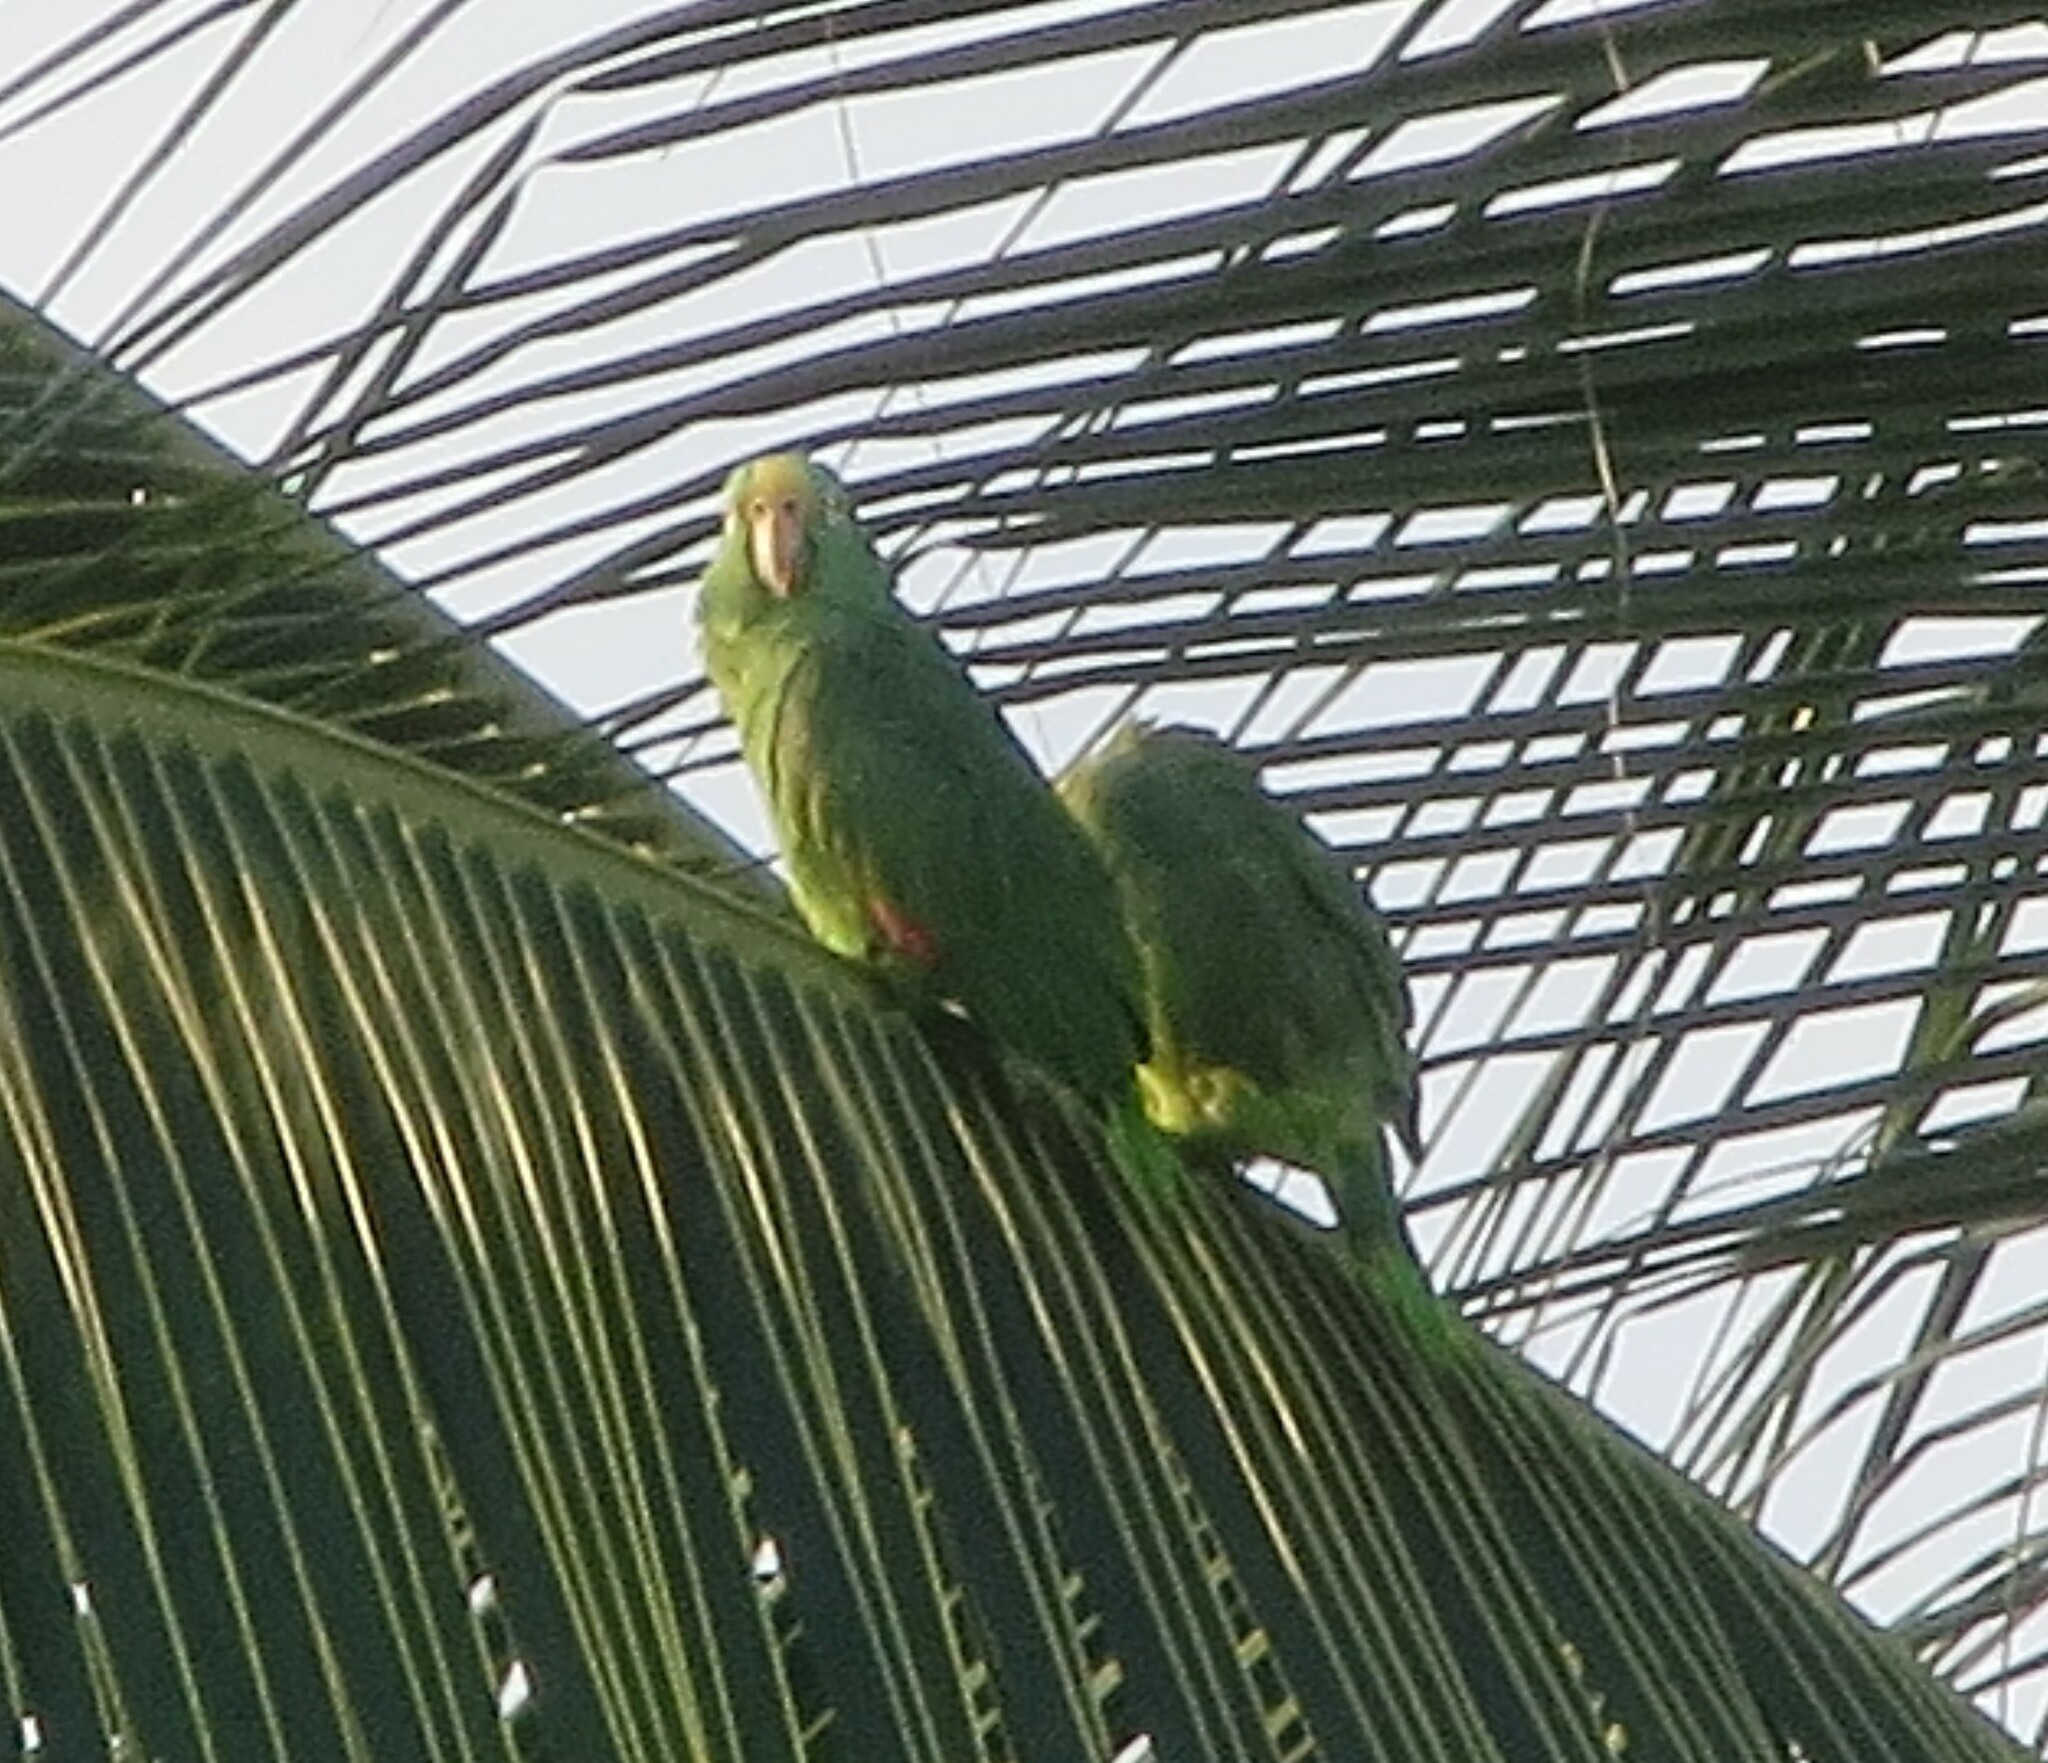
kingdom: Animalia
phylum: Chordata
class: Aves
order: Psittaciformes
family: Psittacidae
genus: Amazona
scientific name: Amazona ochrocephala
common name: Yellow-crowned amazon
